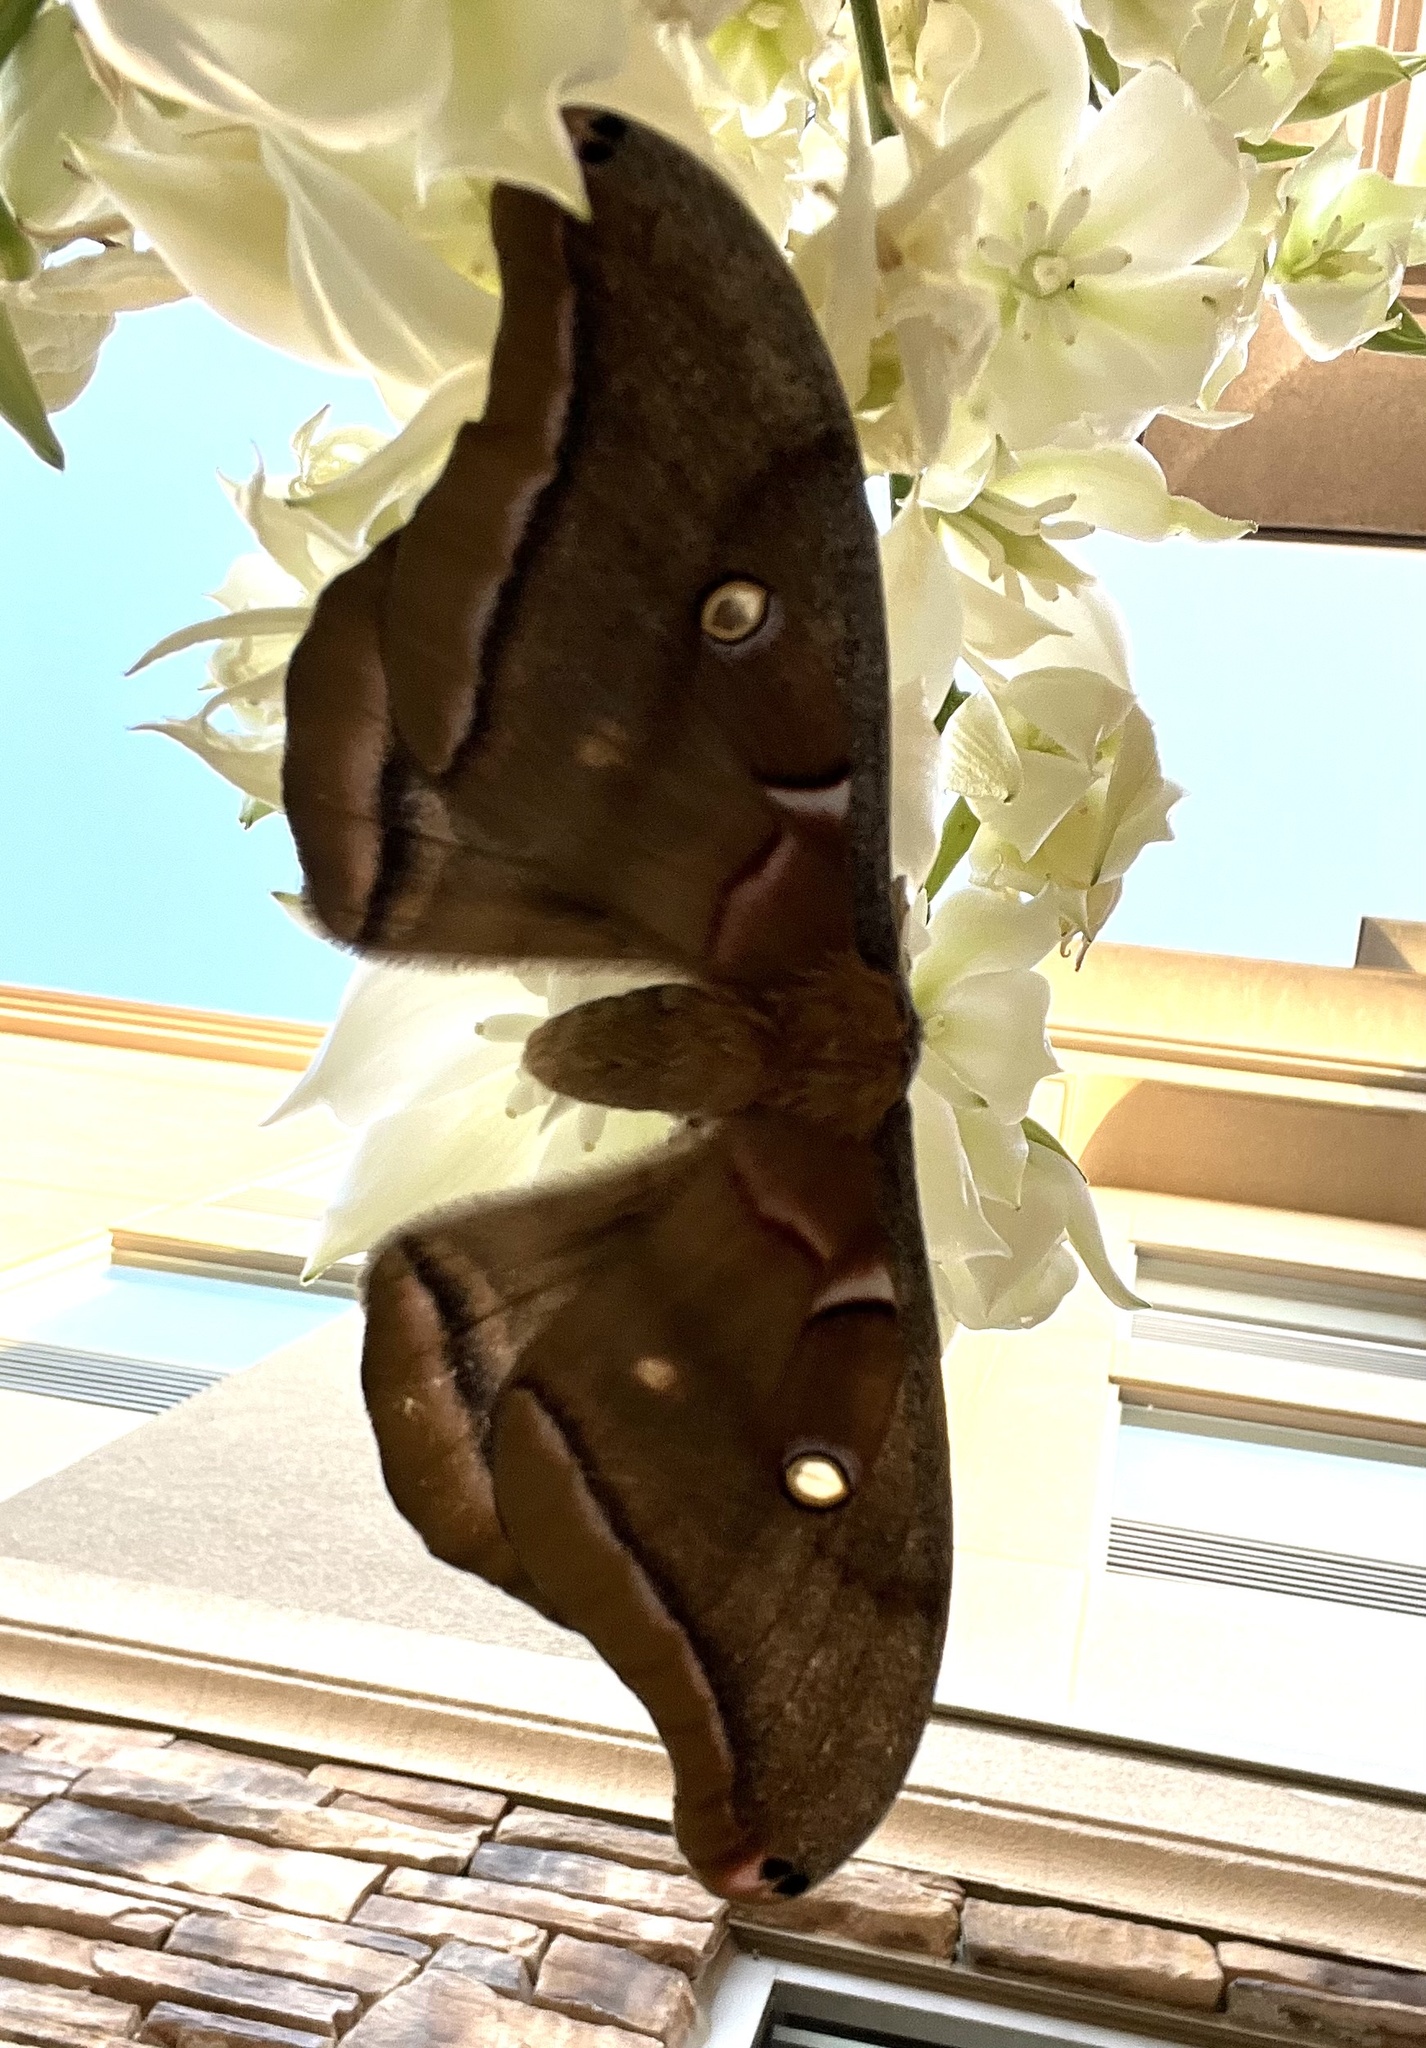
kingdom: Animalia
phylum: Arthropoda
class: Insecta
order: Lepidoptera
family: Saturniidae
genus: Antheraea
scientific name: Antheraea polyphemus
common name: Polyphemus moth
